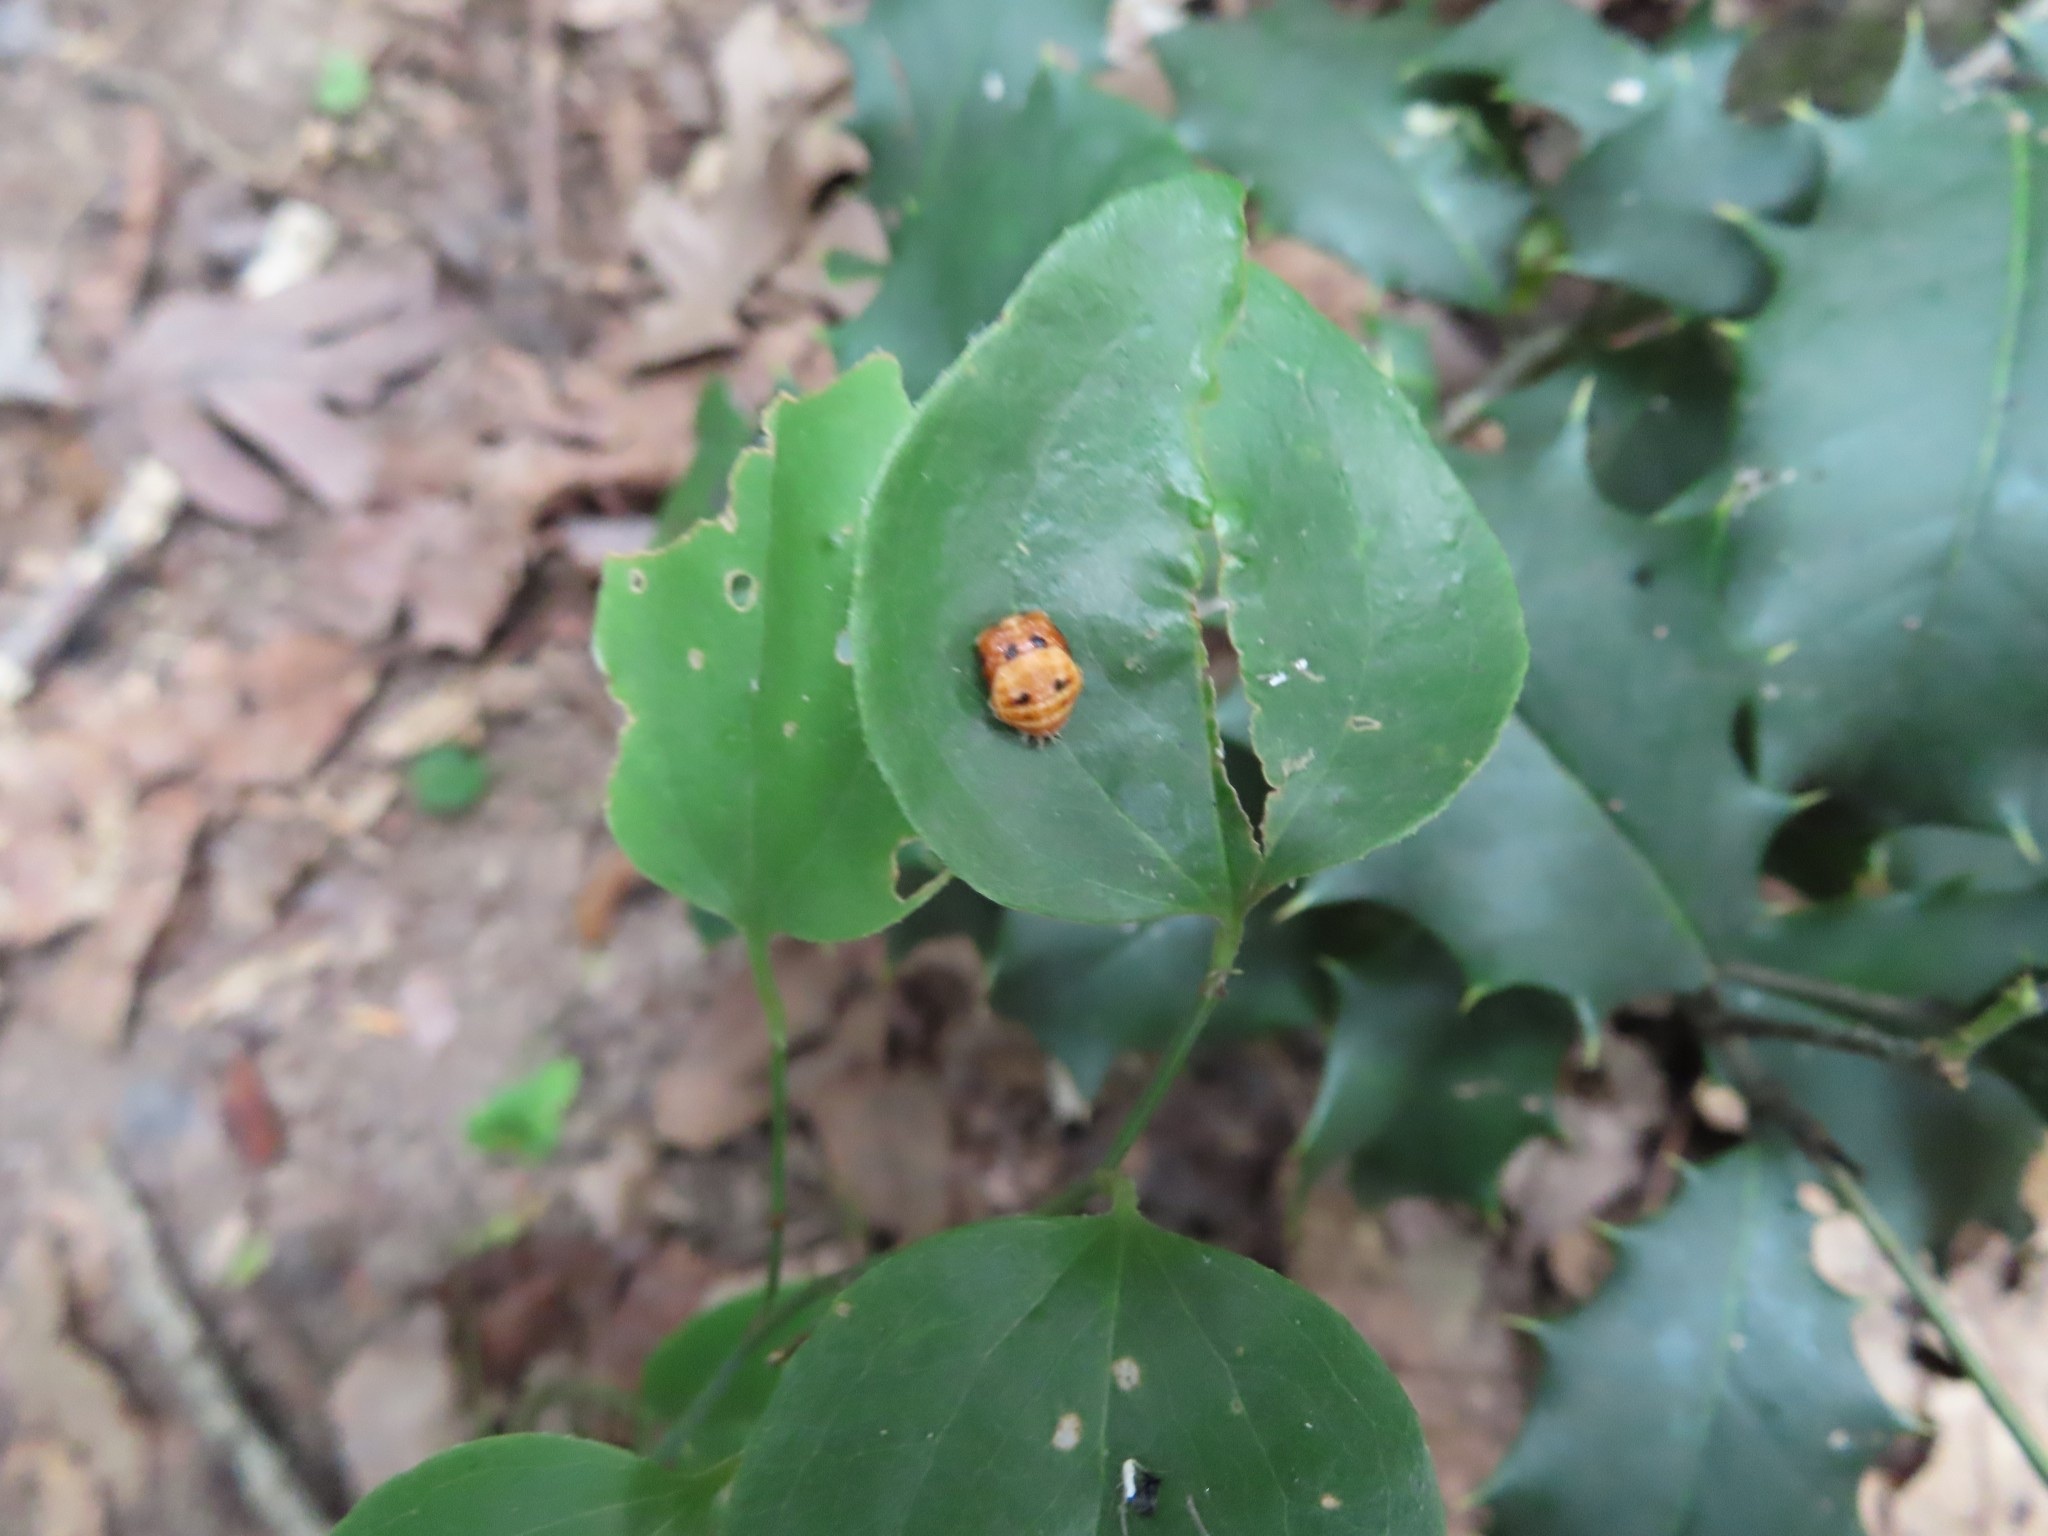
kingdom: Animalia
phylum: Arthropoda
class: Insecta
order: Coleoptera
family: Coccinellidae
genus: Harmonia
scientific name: Harmonia axyridis
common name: Harlequin ladybird
